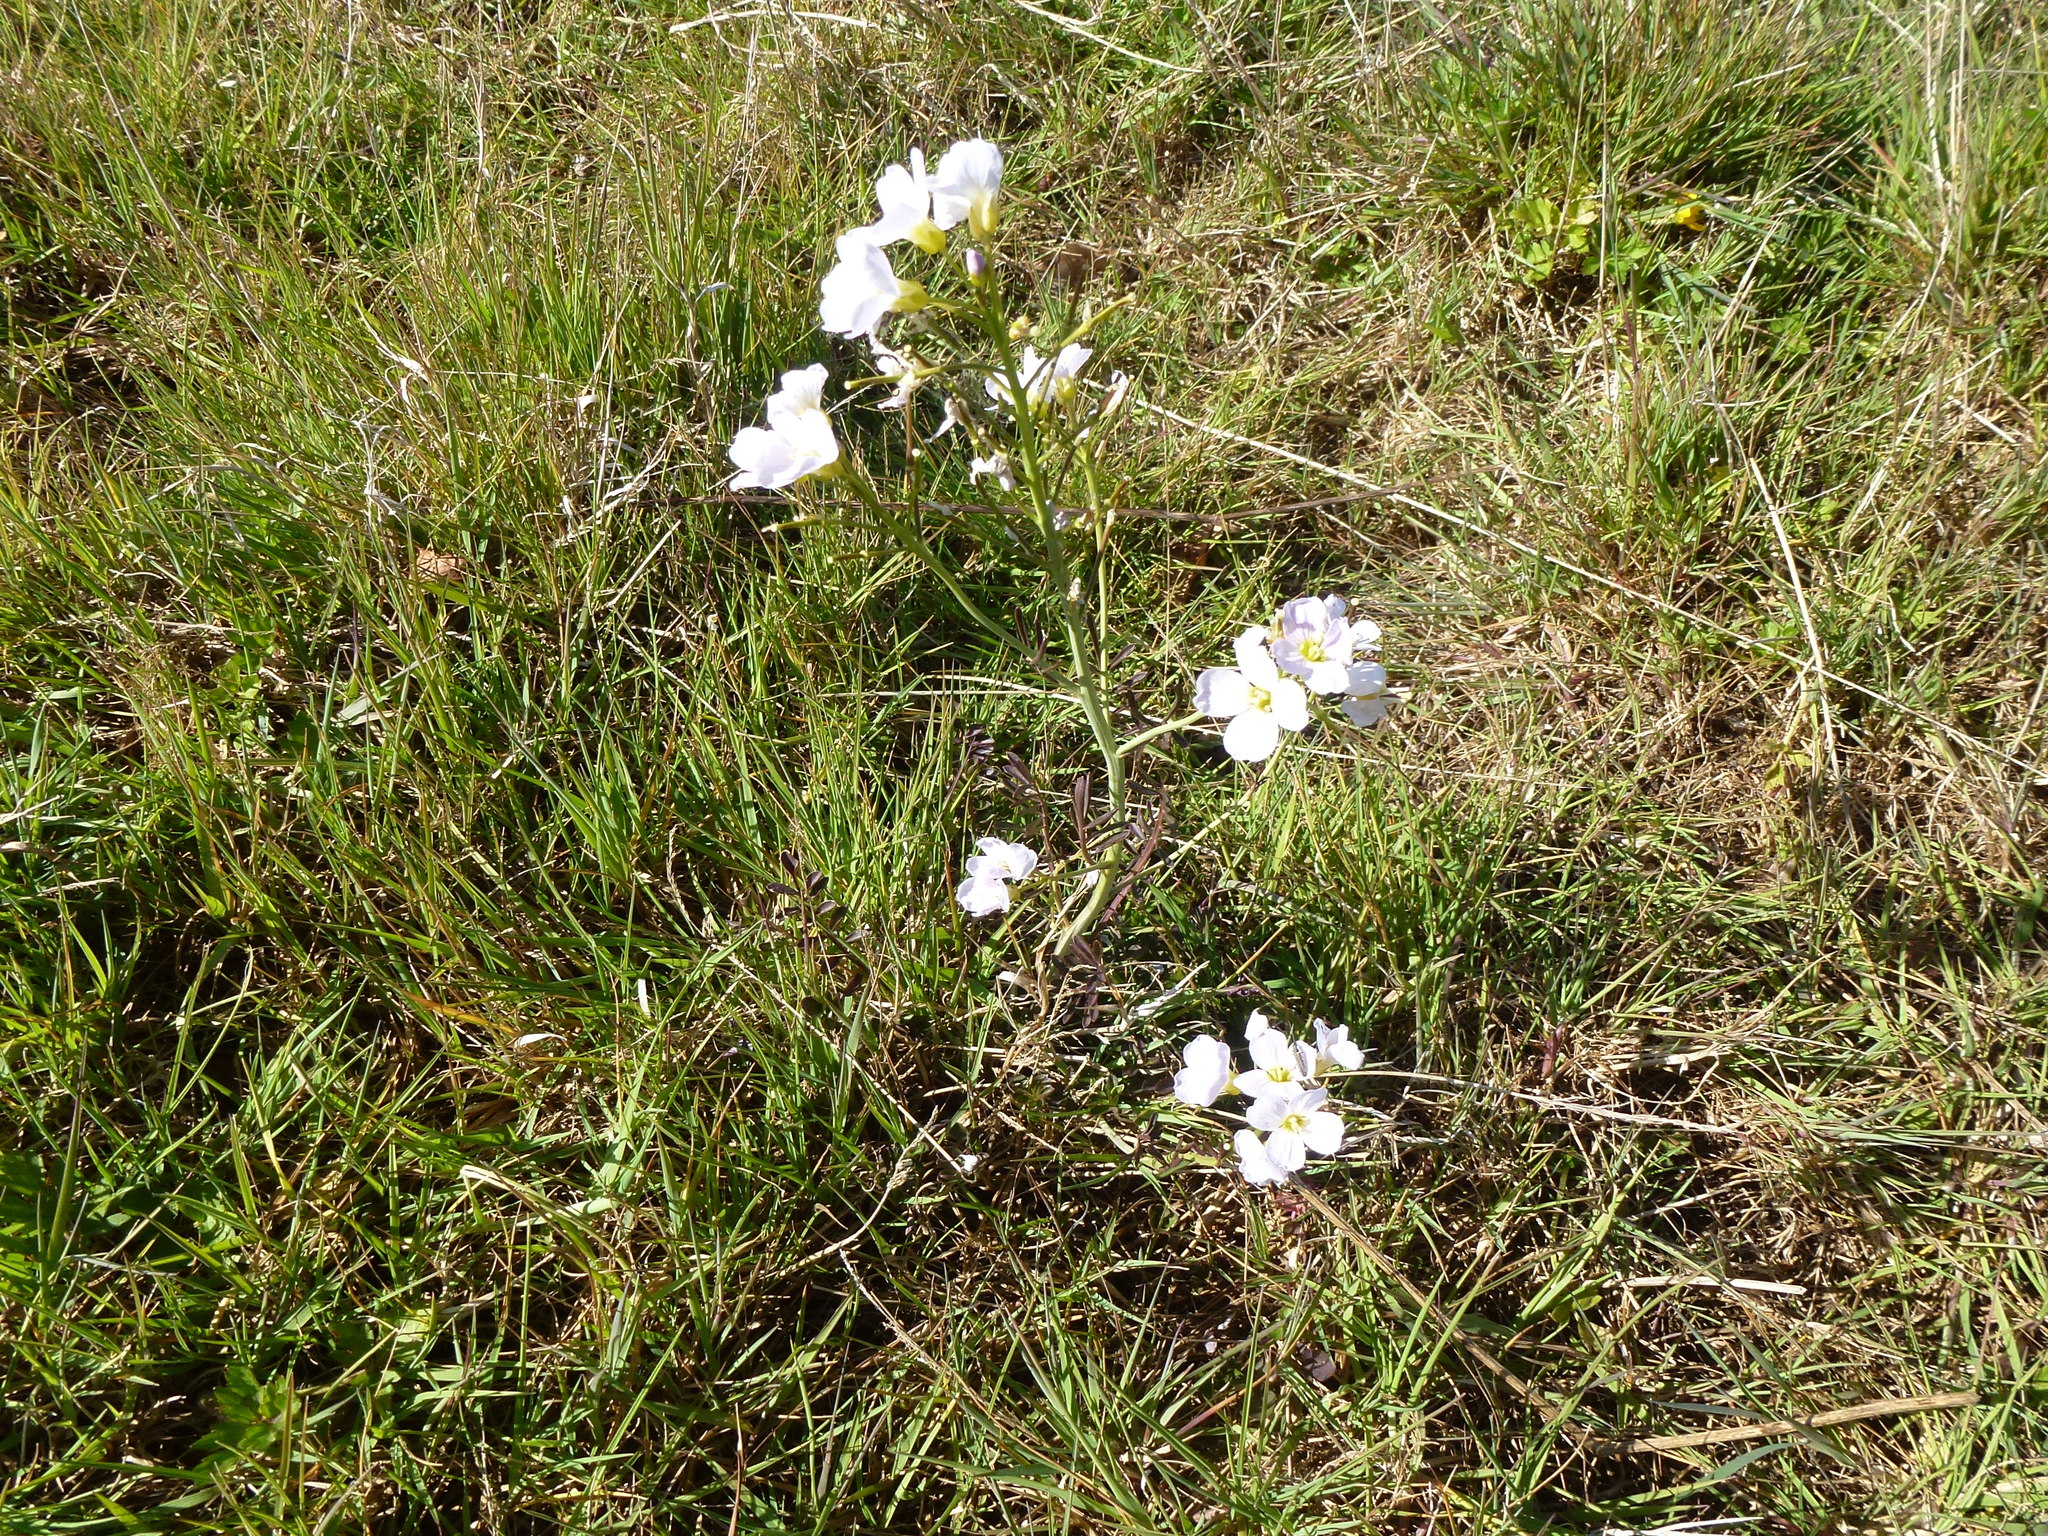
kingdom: Plantae
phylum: Tracheophyta
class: Magnoliopsida
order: Brassicales
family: Brassicaceae
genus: Cardamine
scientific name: Cardamine pratensis
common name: Cuckoo flower
